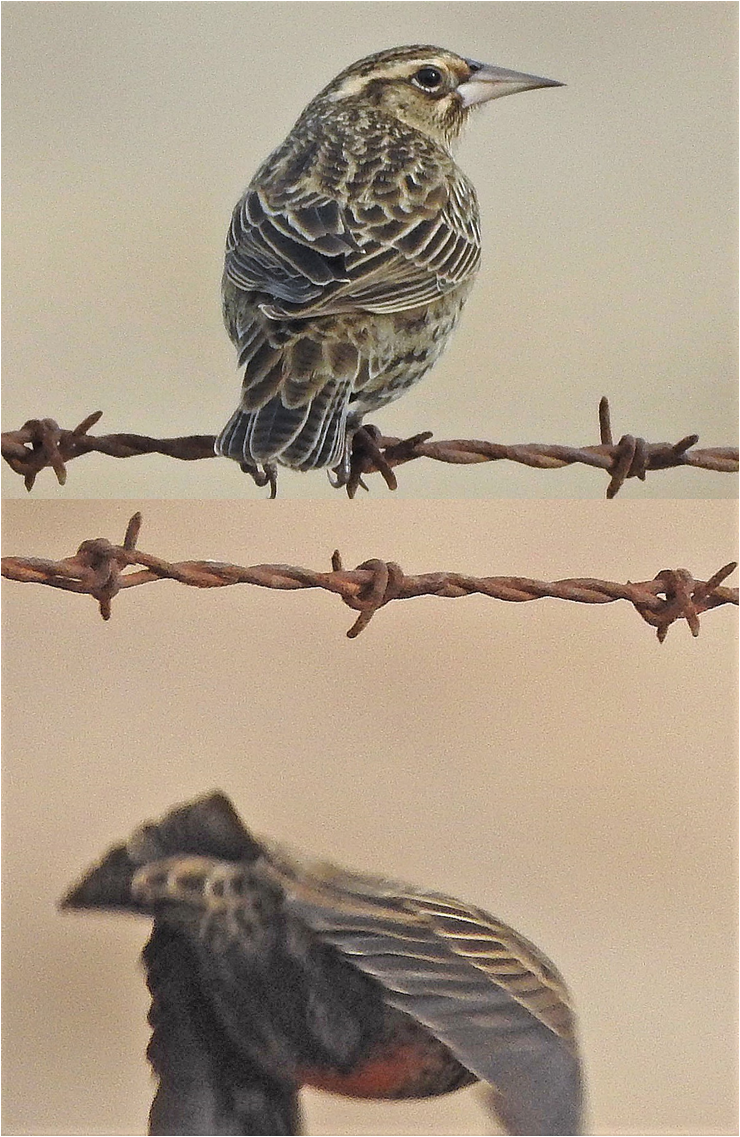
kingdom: Animalia
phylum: Chordata
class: Aves
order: Passeriformes
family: Icteridae
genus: Sturnella
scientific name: Sturnella defilippii
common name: Pampas meadowlark
